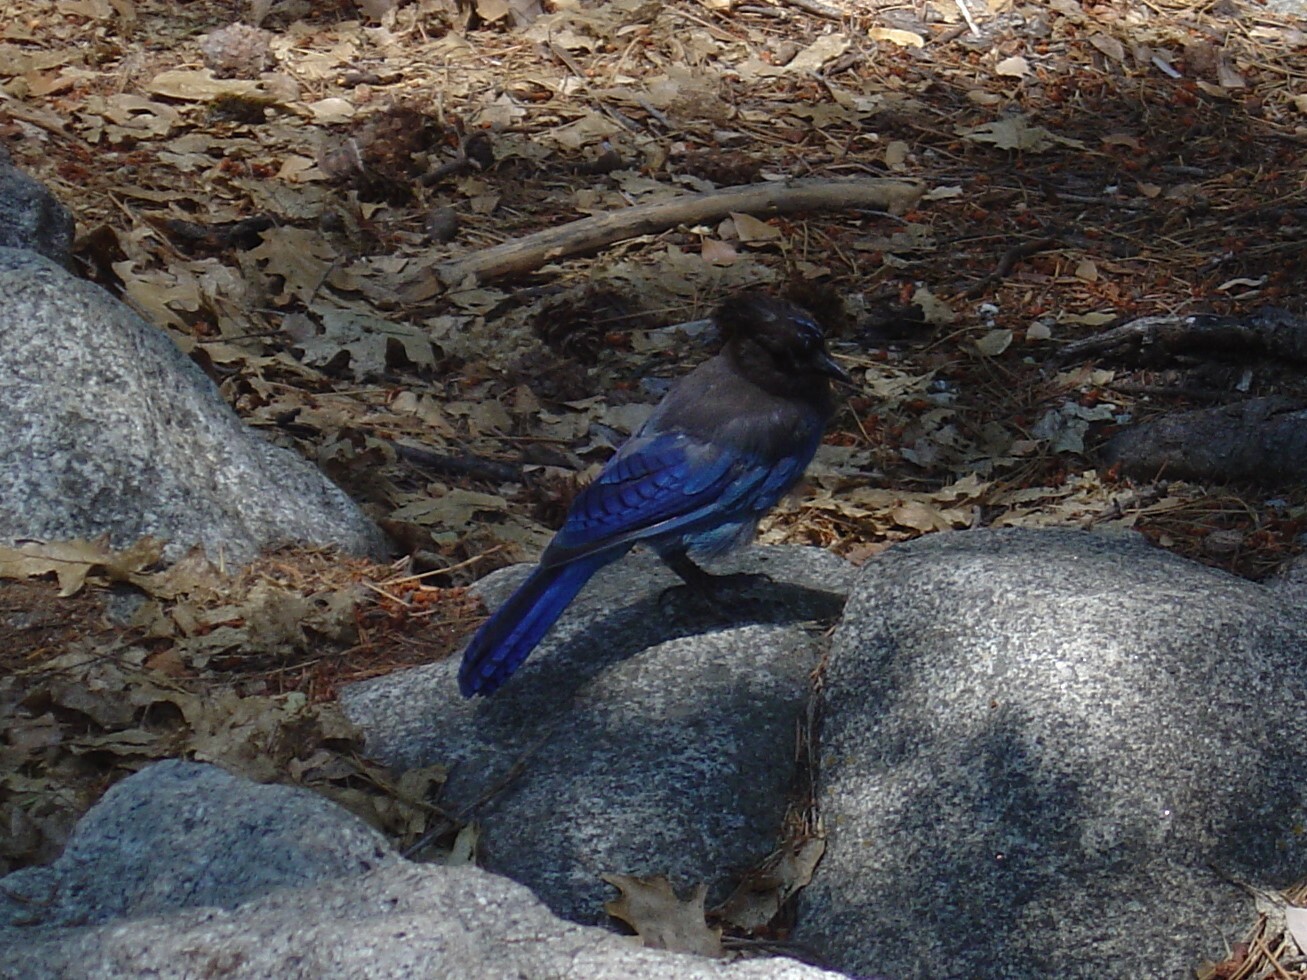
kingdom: Animalia
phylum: Chordata
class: Aves
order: Passeriformes
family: Corvidae
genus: Cyanocitta
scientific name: Cyanocitta stelleri
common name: Steller's jay
